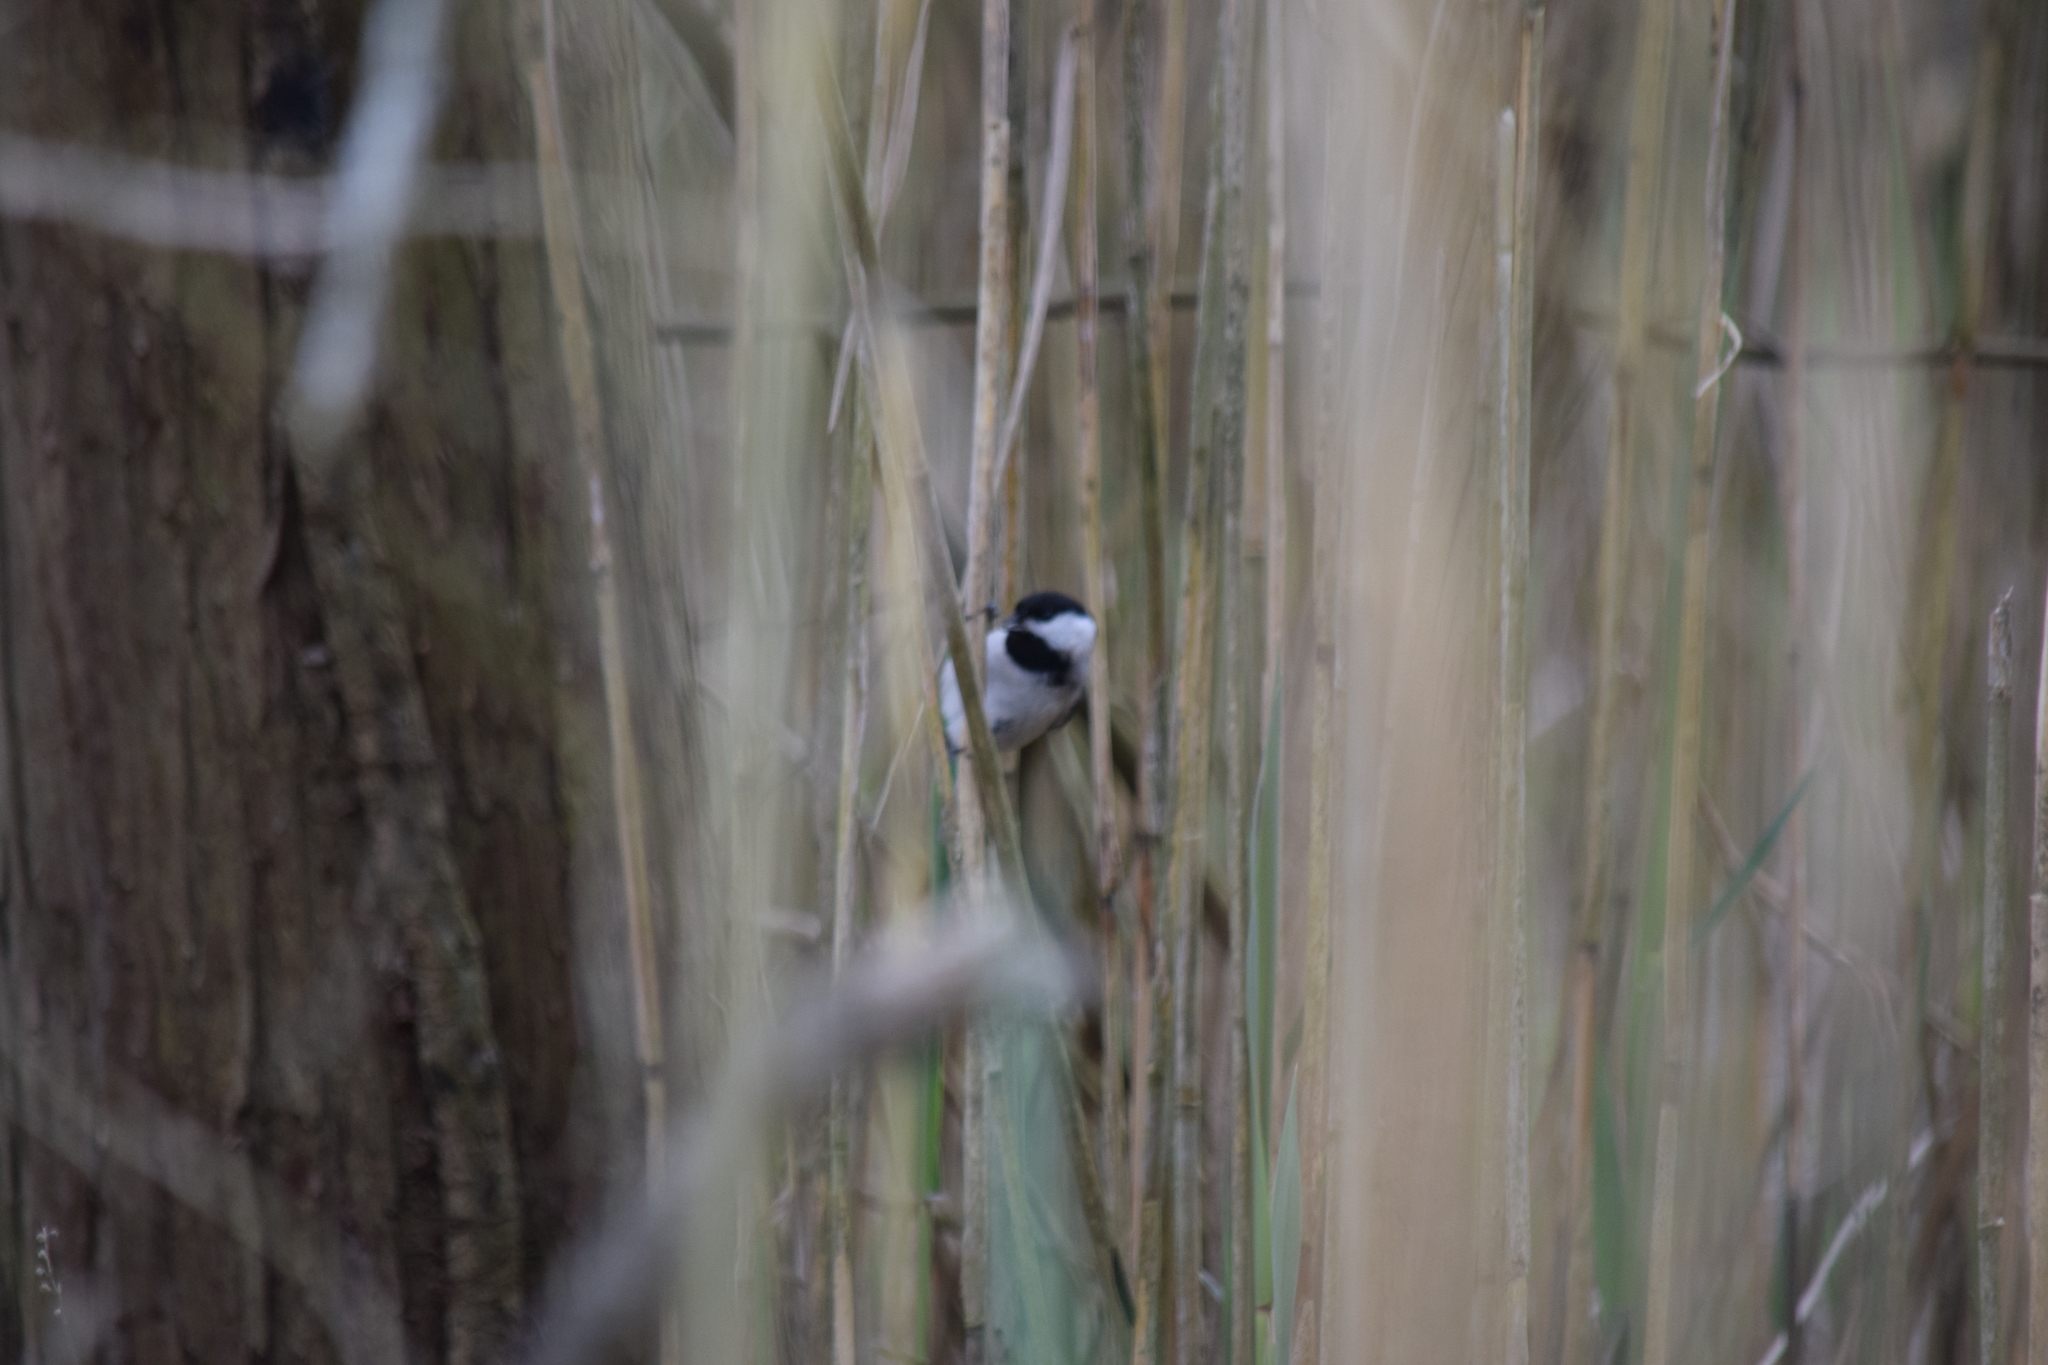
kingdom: Animalia
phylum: Chordata
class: Aves
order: Passeriformes
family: Paridae
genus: Poecile
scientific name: Poecile carolinensis
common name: Carolina chickadee
